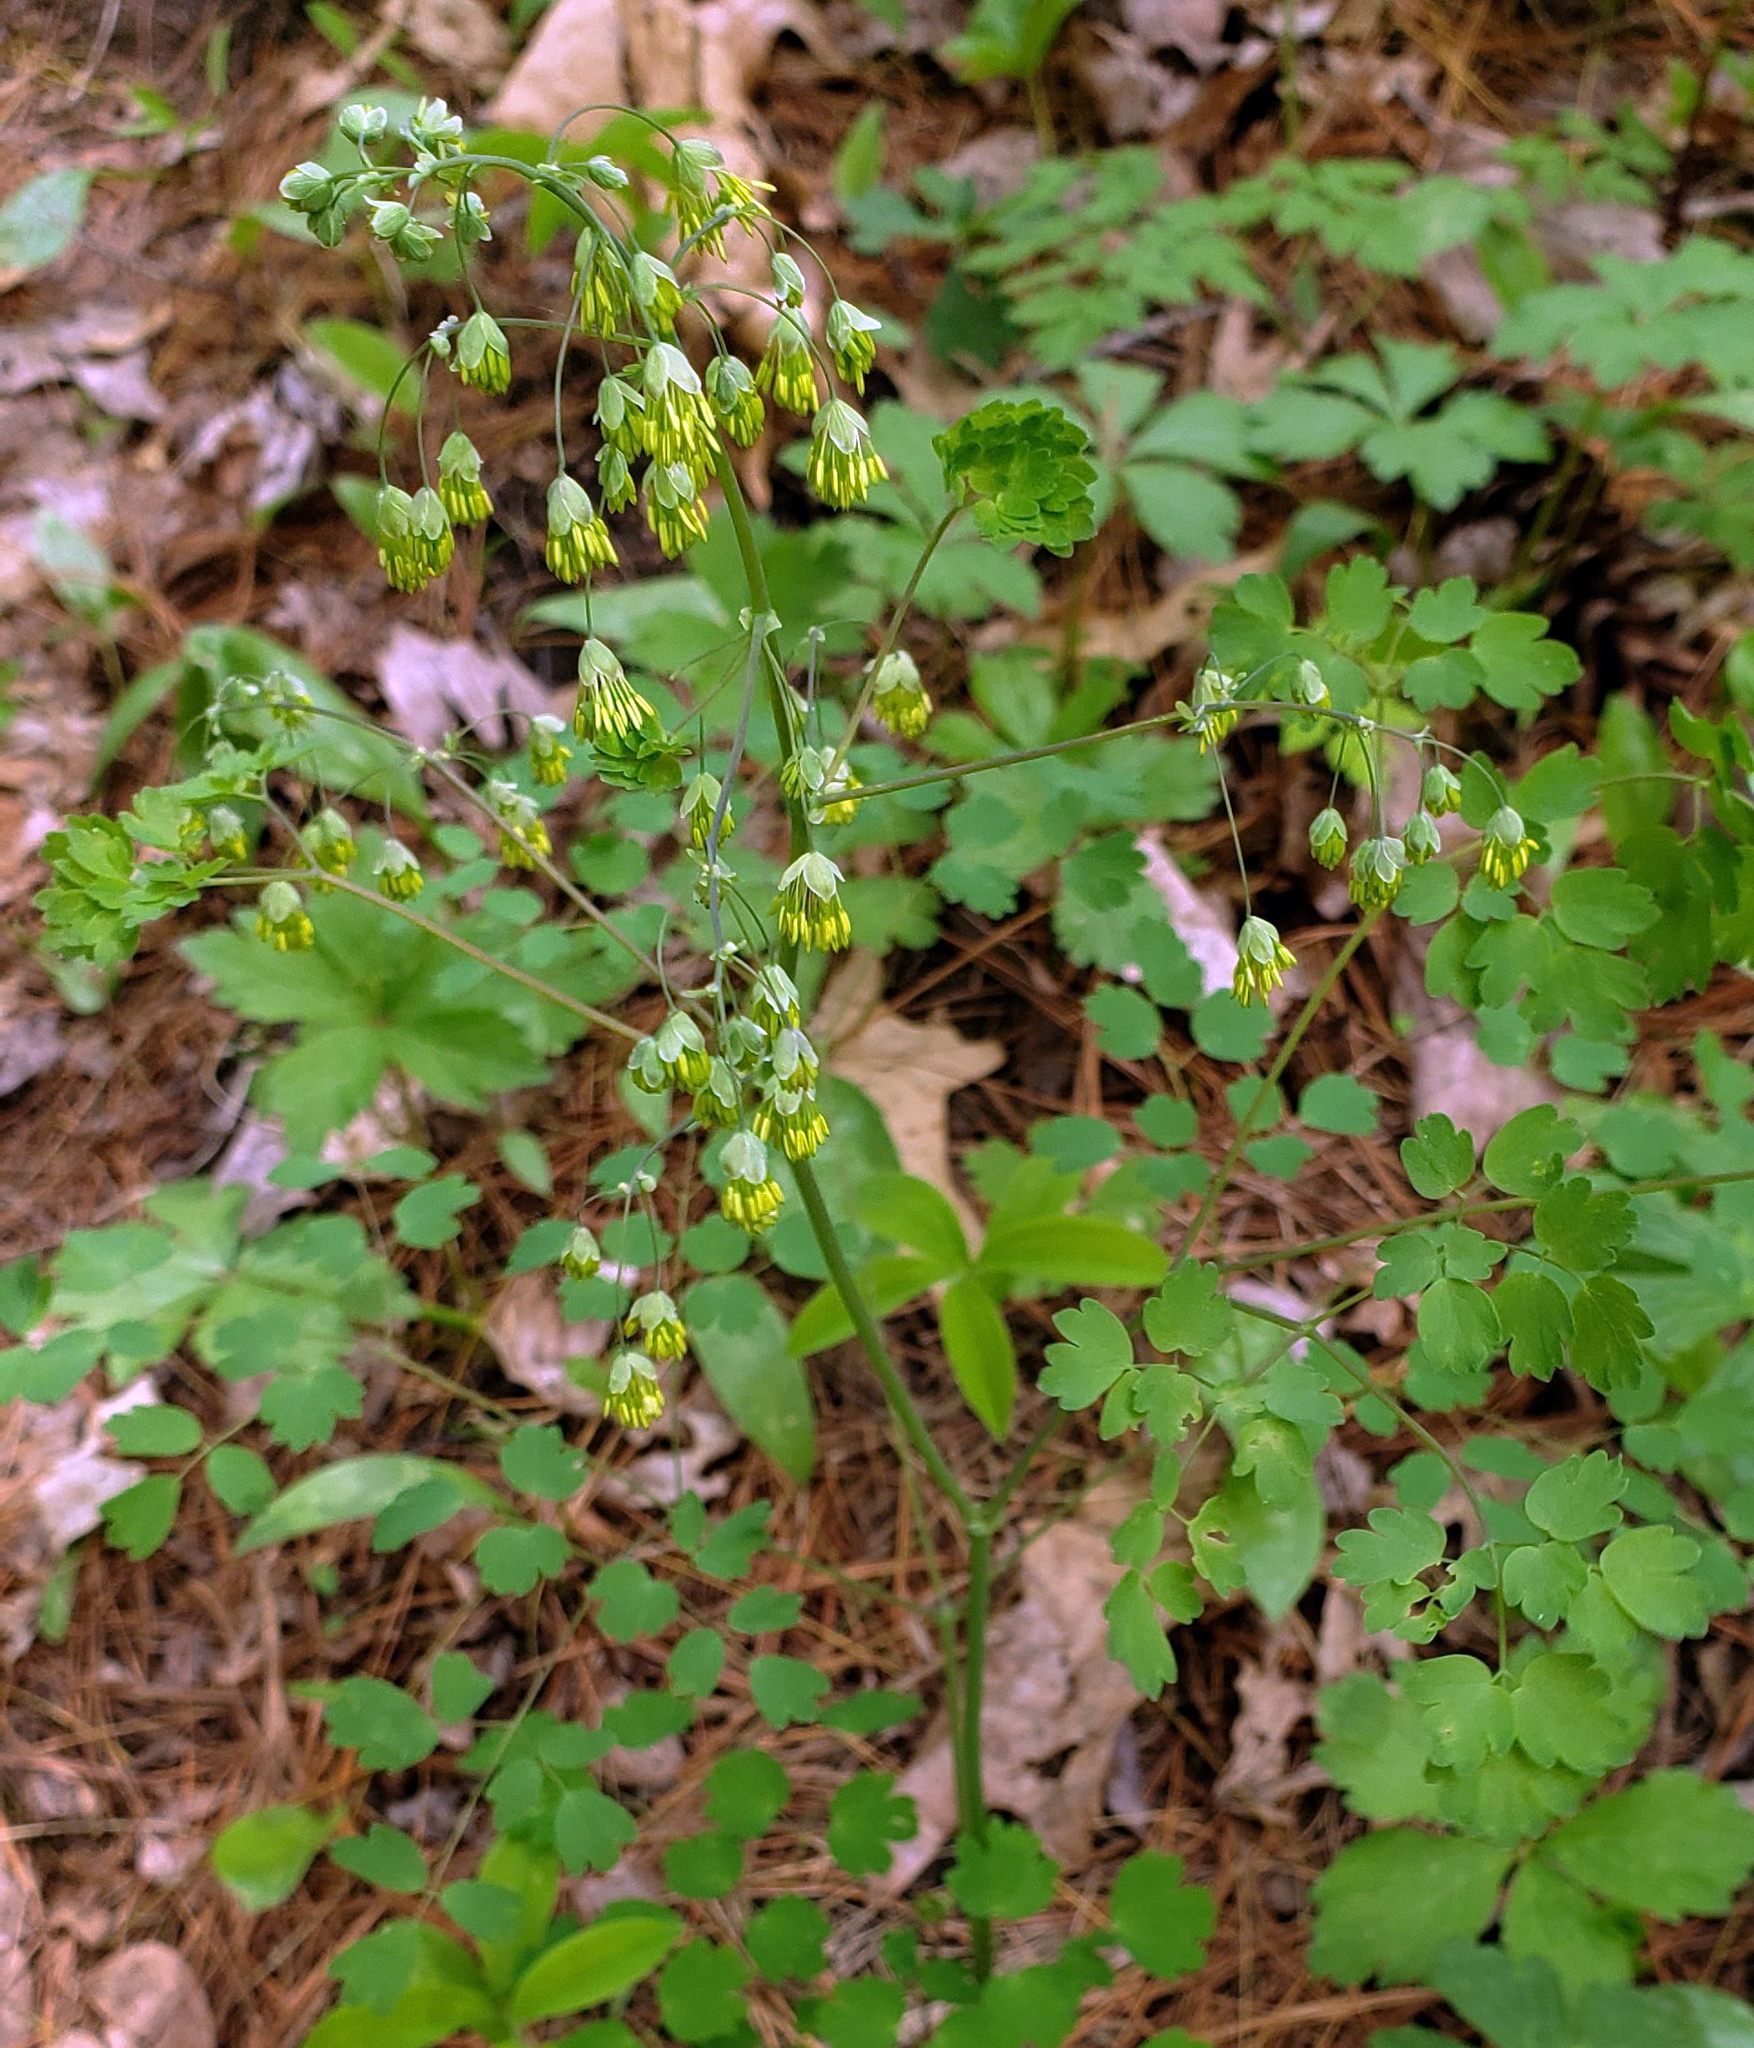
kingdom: Plantae
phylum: Tracheophyta
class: Magnoliopsida
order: Ranunculales
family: Ranunculaceae
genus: Thalictrum
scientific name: Thalictrum dioicum
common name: Early meadow-rue
